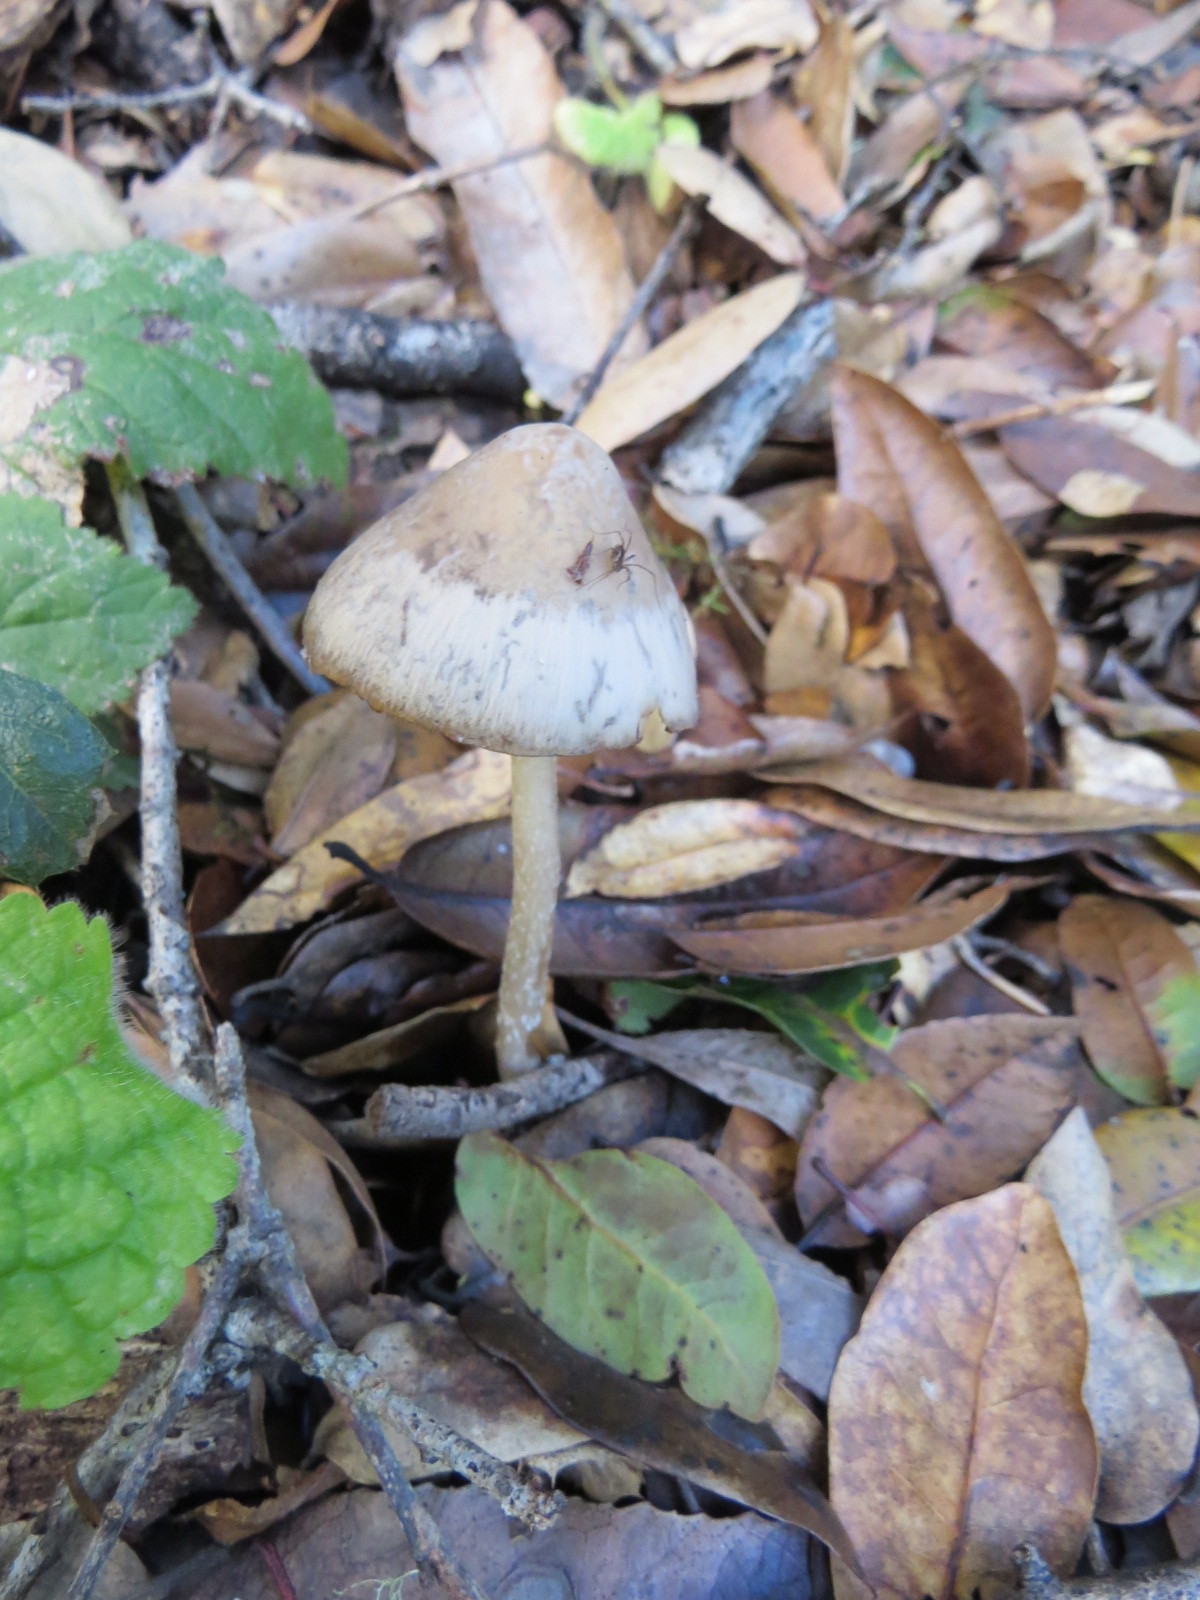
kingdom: Fungi
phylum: Basidiomycota
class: Agaricomycetes
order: Agaricales
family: Psathyrellaceae
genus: Psathyrella
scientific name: Psathyrella longipes
